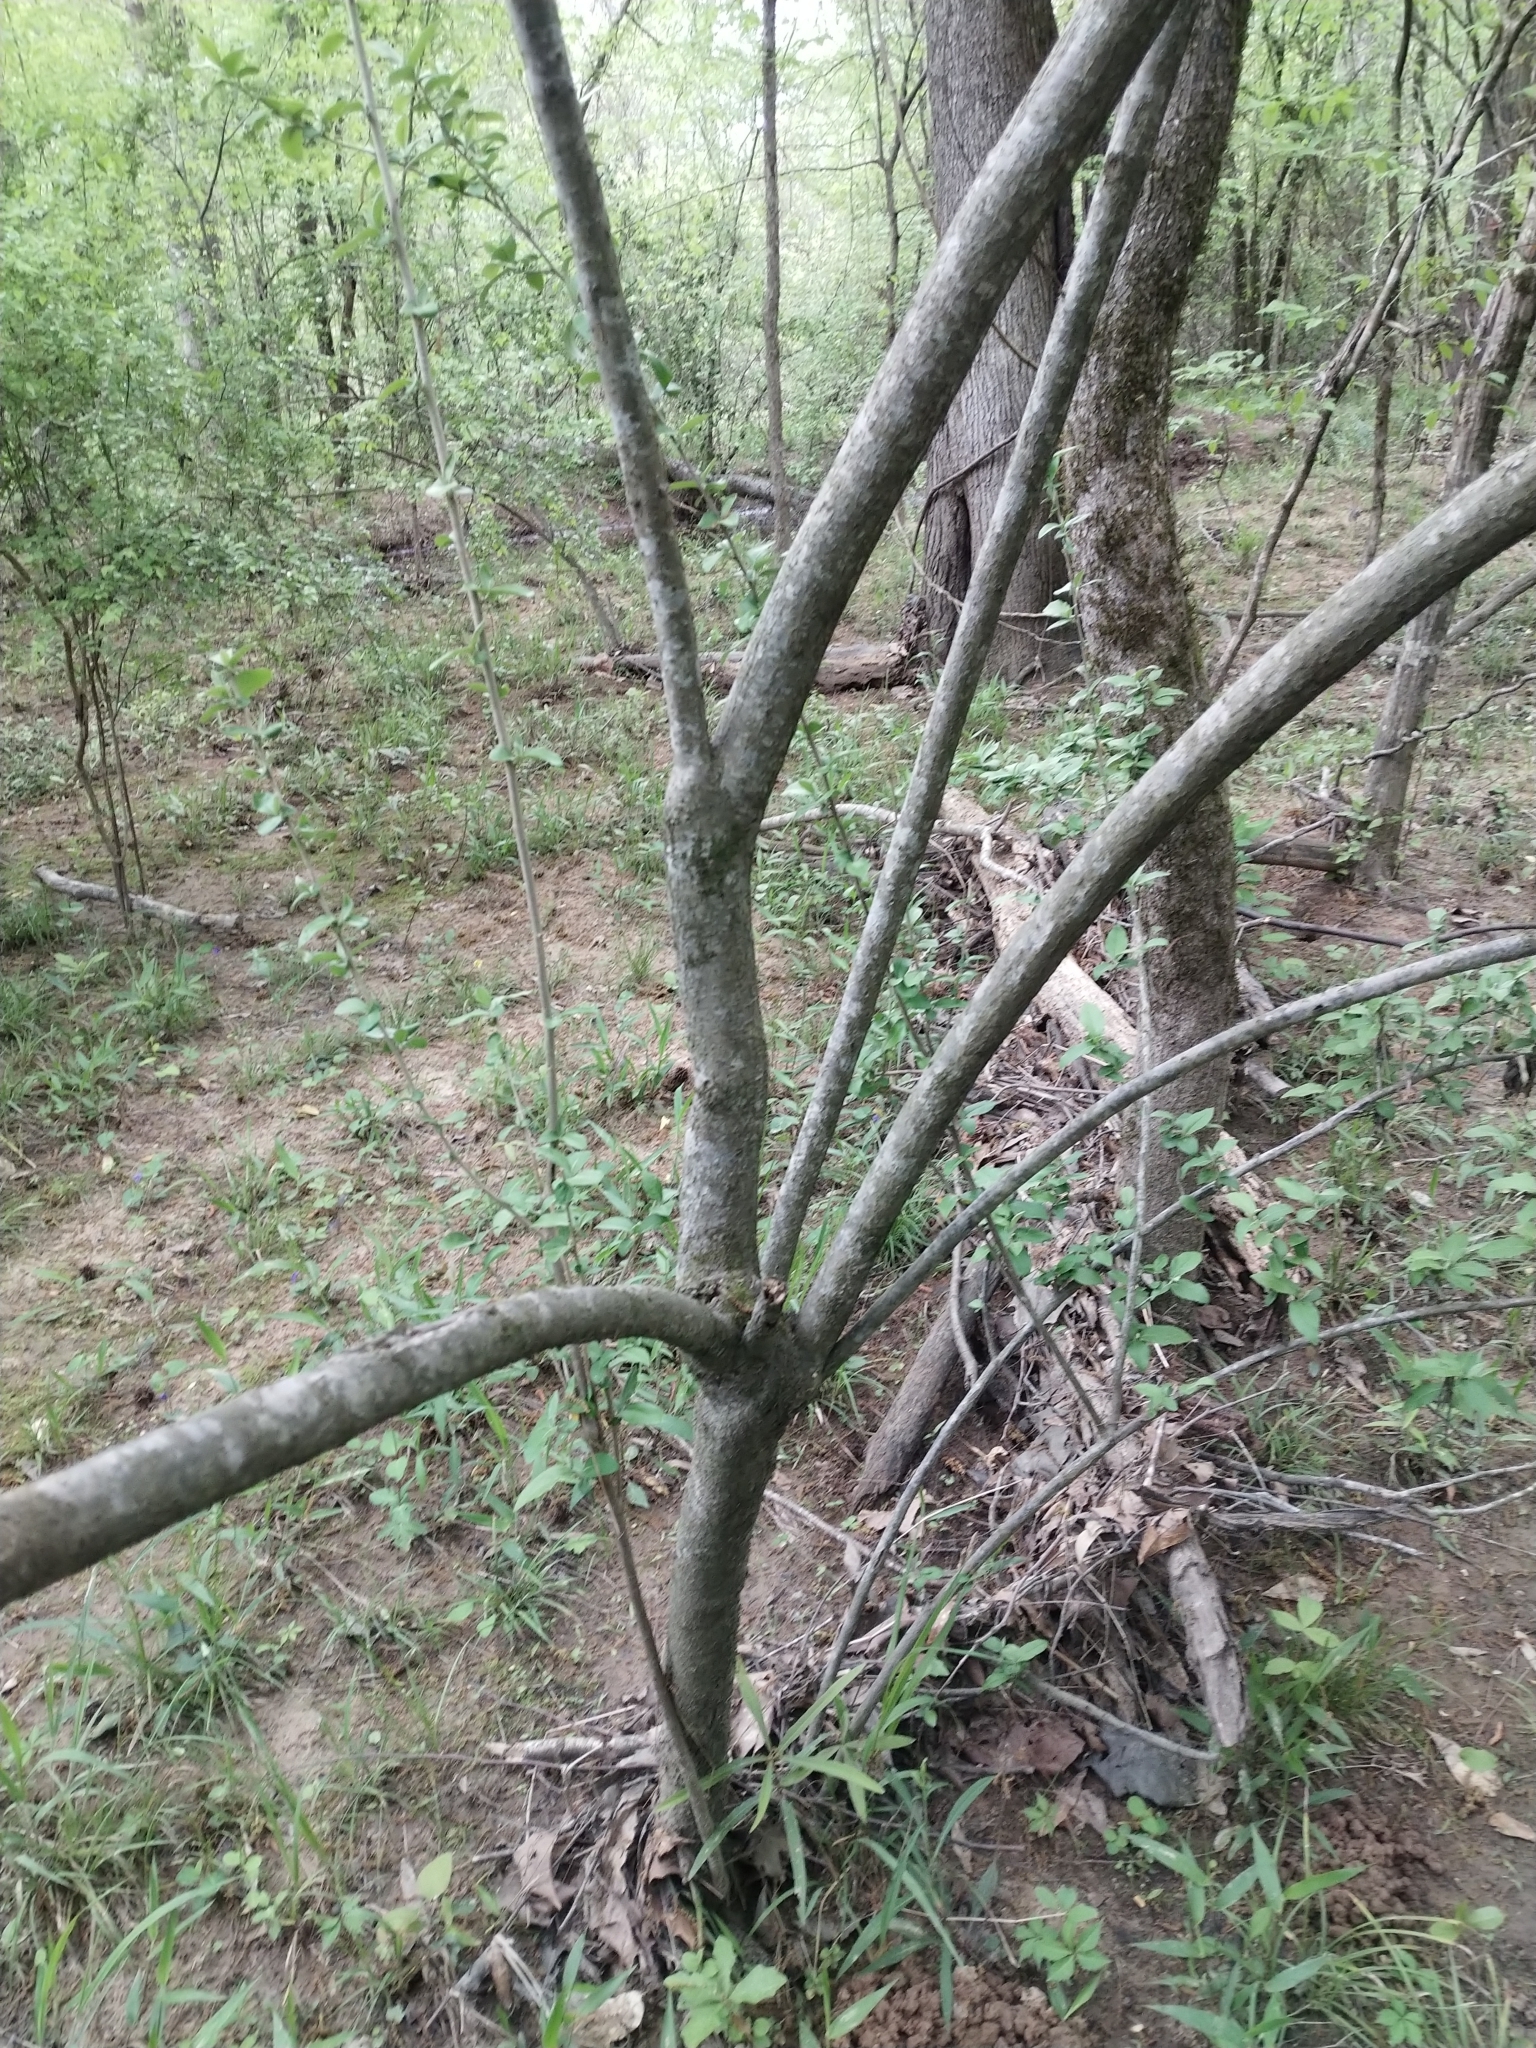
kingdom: Plantae
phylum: Tracheophyta
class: Magnoliopsida
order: Rosales
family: Elaeagnaceae
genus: Elaeagnus
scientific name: Elaeagnus umbellata
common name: Autumn olive
